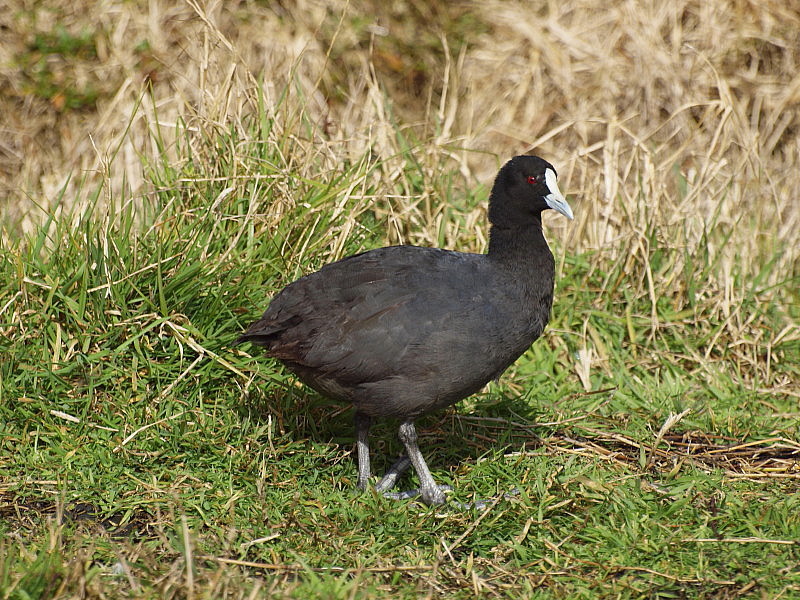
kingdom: Animalia
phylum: Chordata
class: Aves
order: Gruiformes
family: Rallidae
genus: Fulica
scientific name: Fulica atra
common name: Eurasian coot
